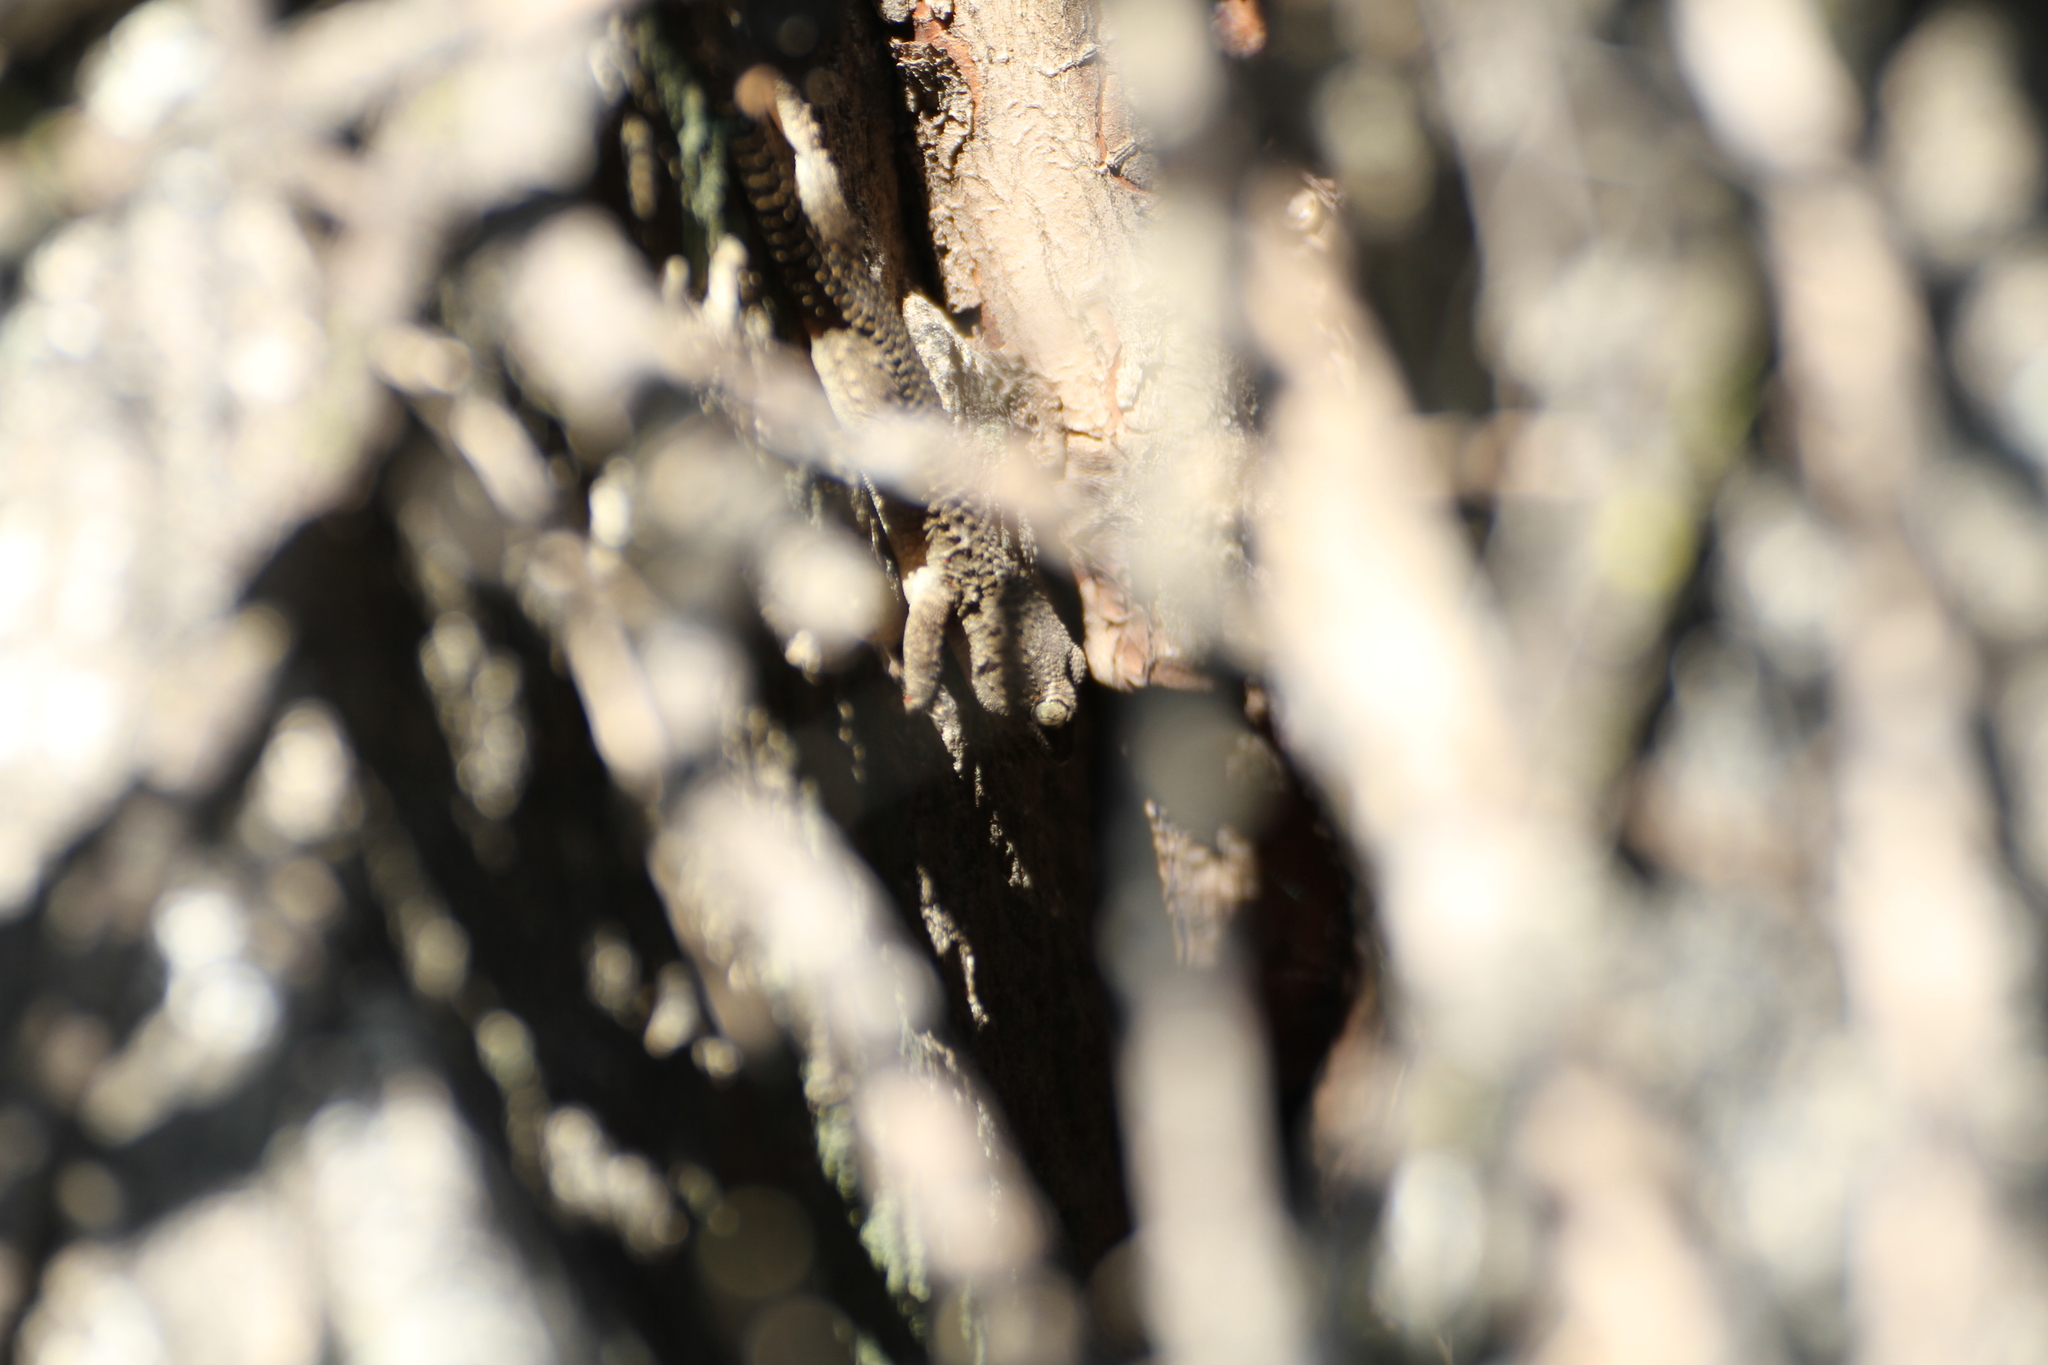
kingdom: Animalia
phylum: Chordata
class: Squamata
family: Phyllodactylidae
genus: Tarentola
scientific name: Tarentola mauritanica
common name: Moorish gecko
